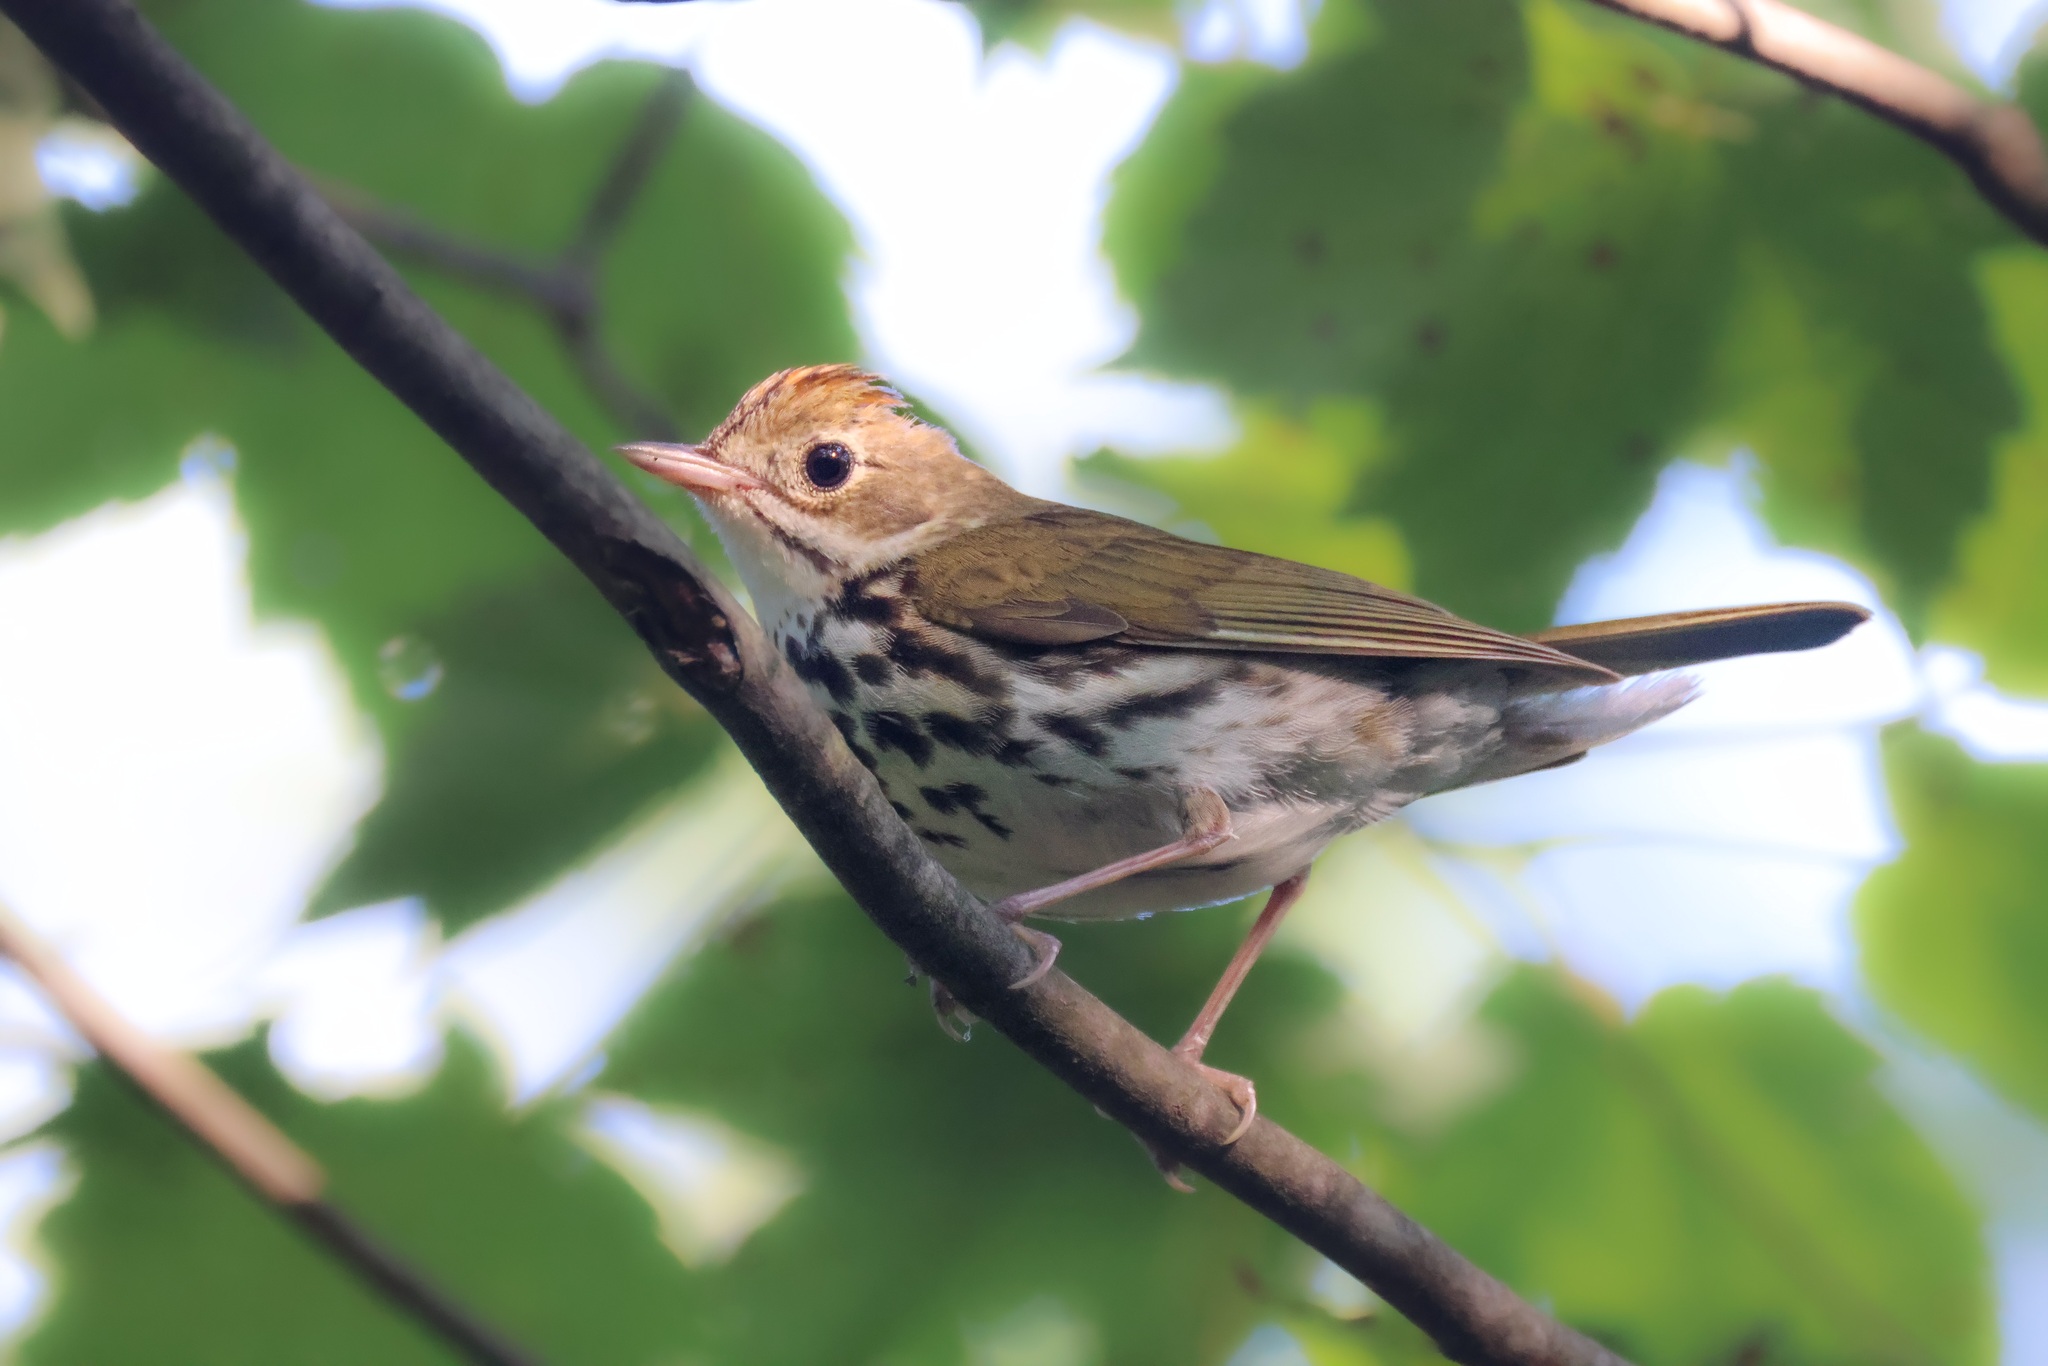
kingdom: Animalia
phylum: Chordata
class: Aves
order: Passeriformes
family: Parulidae
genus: Seiurus
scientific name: Seiurus aurocapilla
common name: Ovenbird
